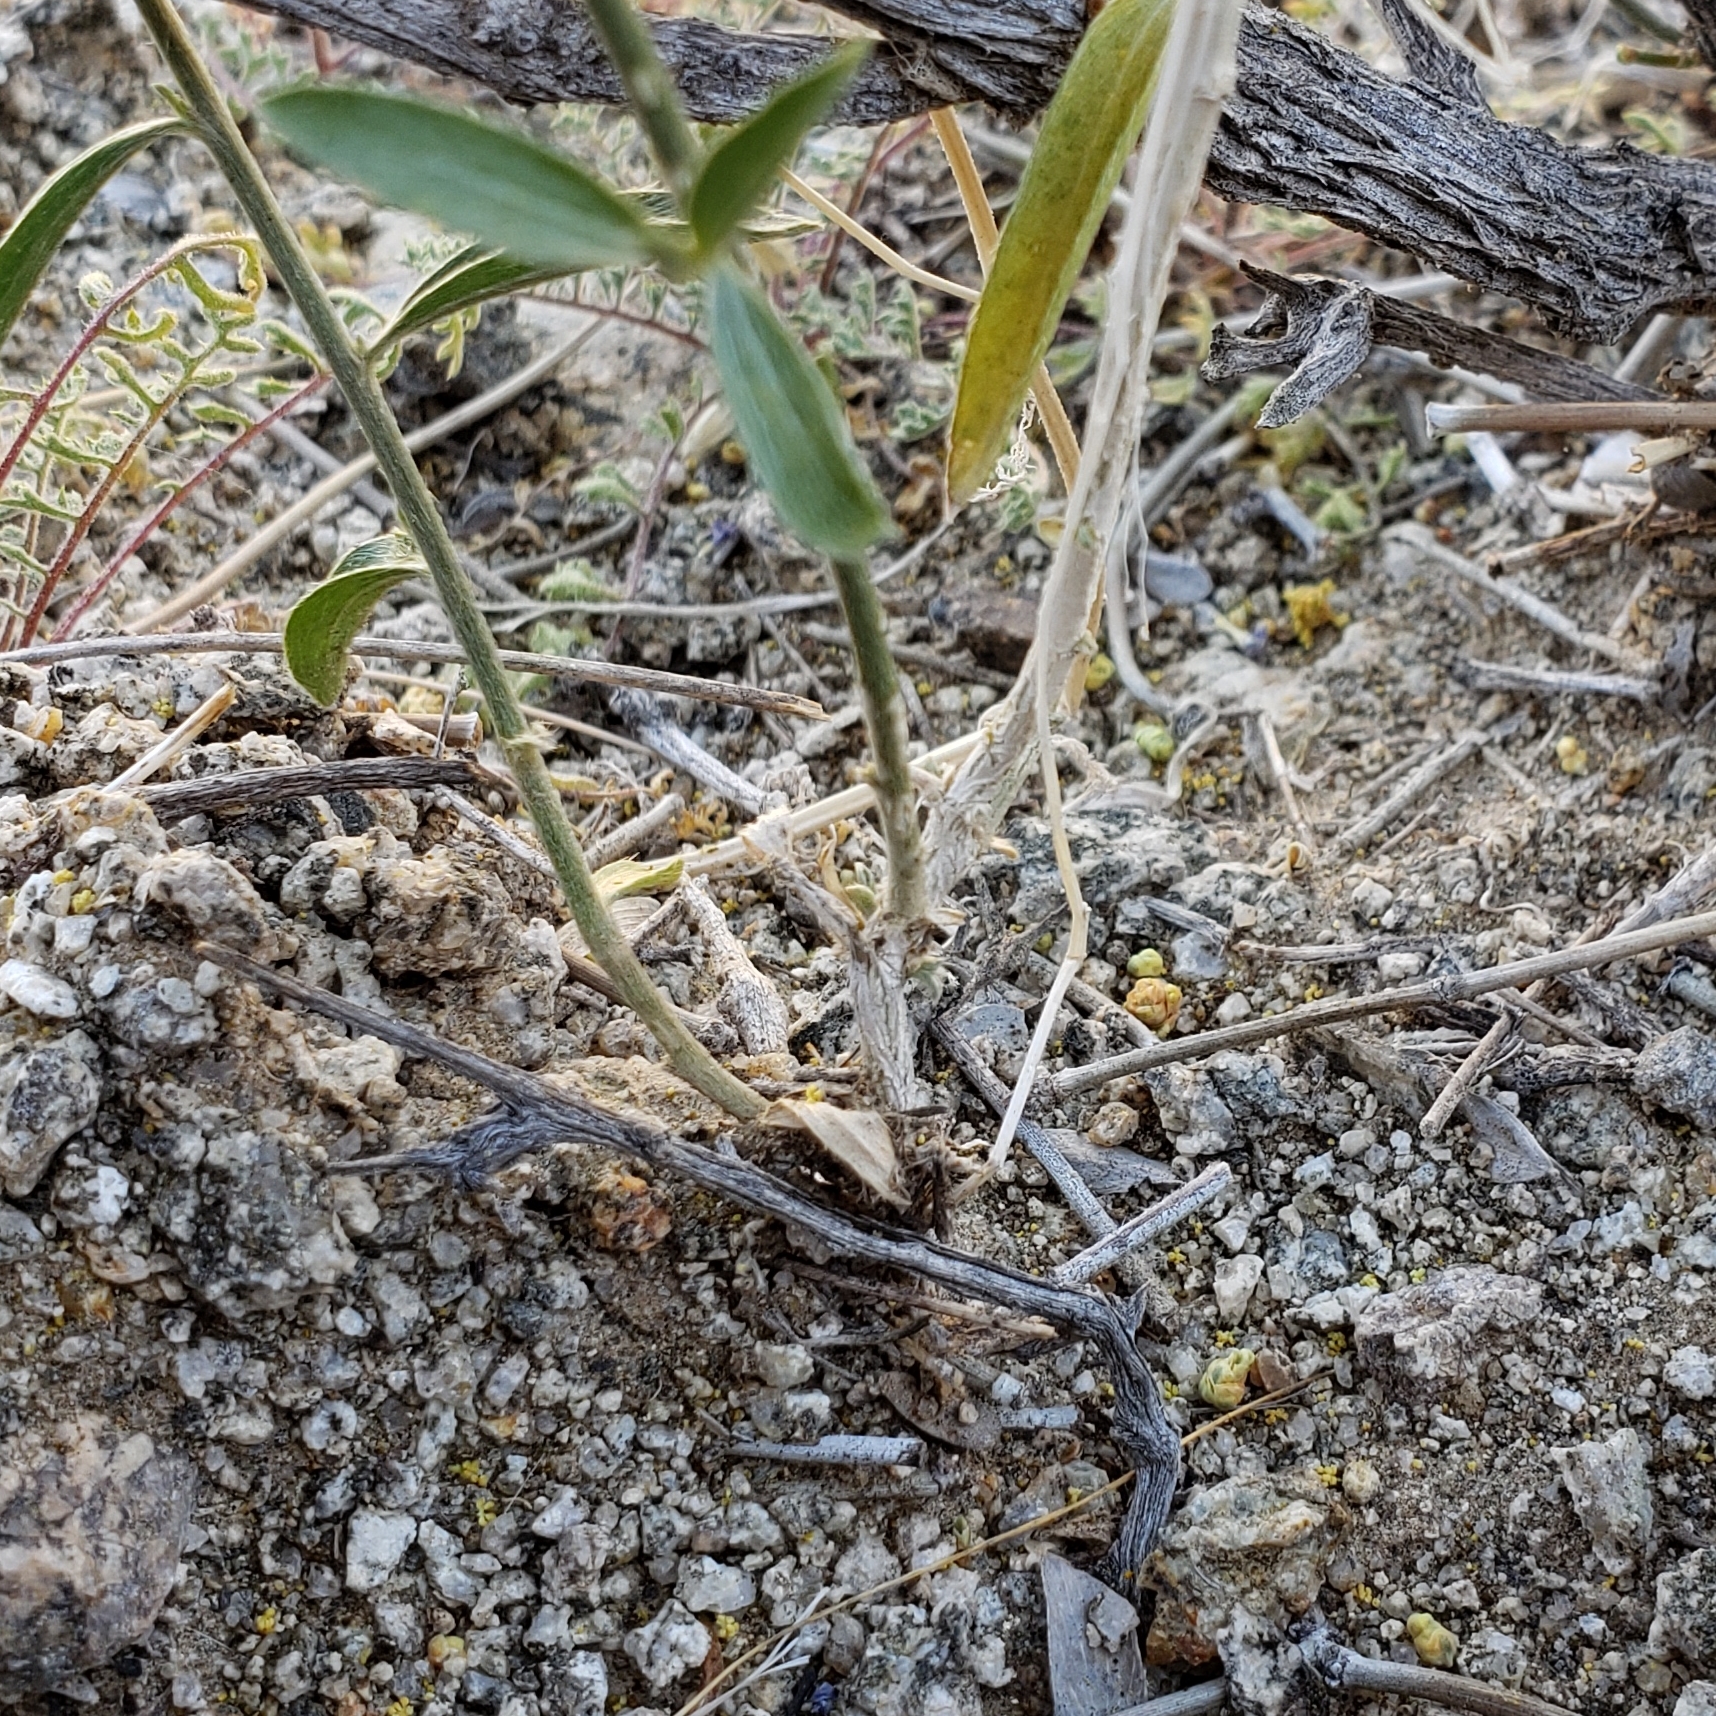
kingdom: Plantae
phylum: Tracheophyta
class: Magnoliopsida
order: Malpighiales
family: Euphorbiaceae
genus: Ditaxis
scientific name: Ditaxis lanceolata
